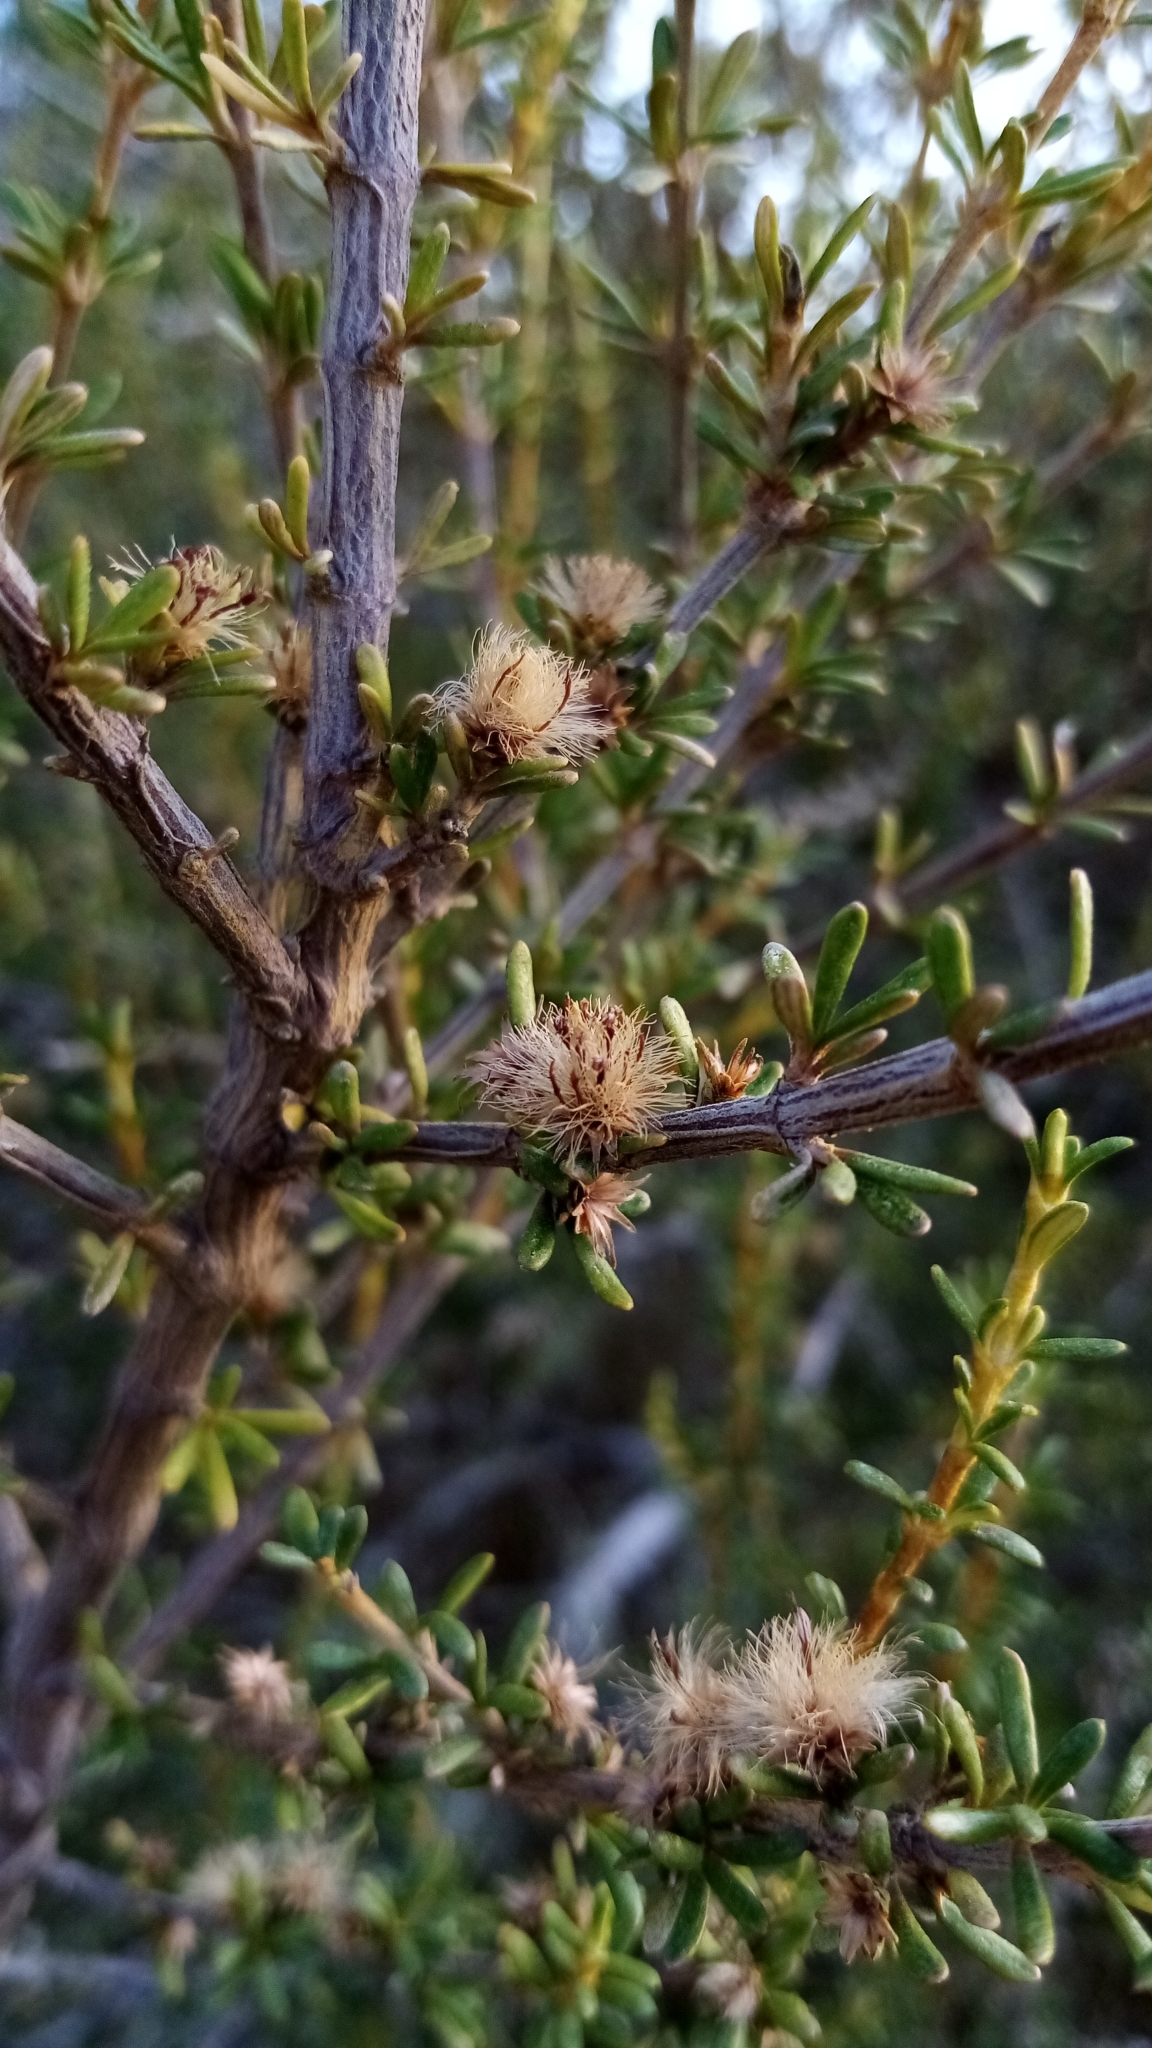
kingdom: Plantae
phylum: Tracheophyta
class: Magnoliopsida
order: Asterales
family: Asteraceae
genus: Olearia
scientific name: Olearia solandri
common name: Coastal daisybush
